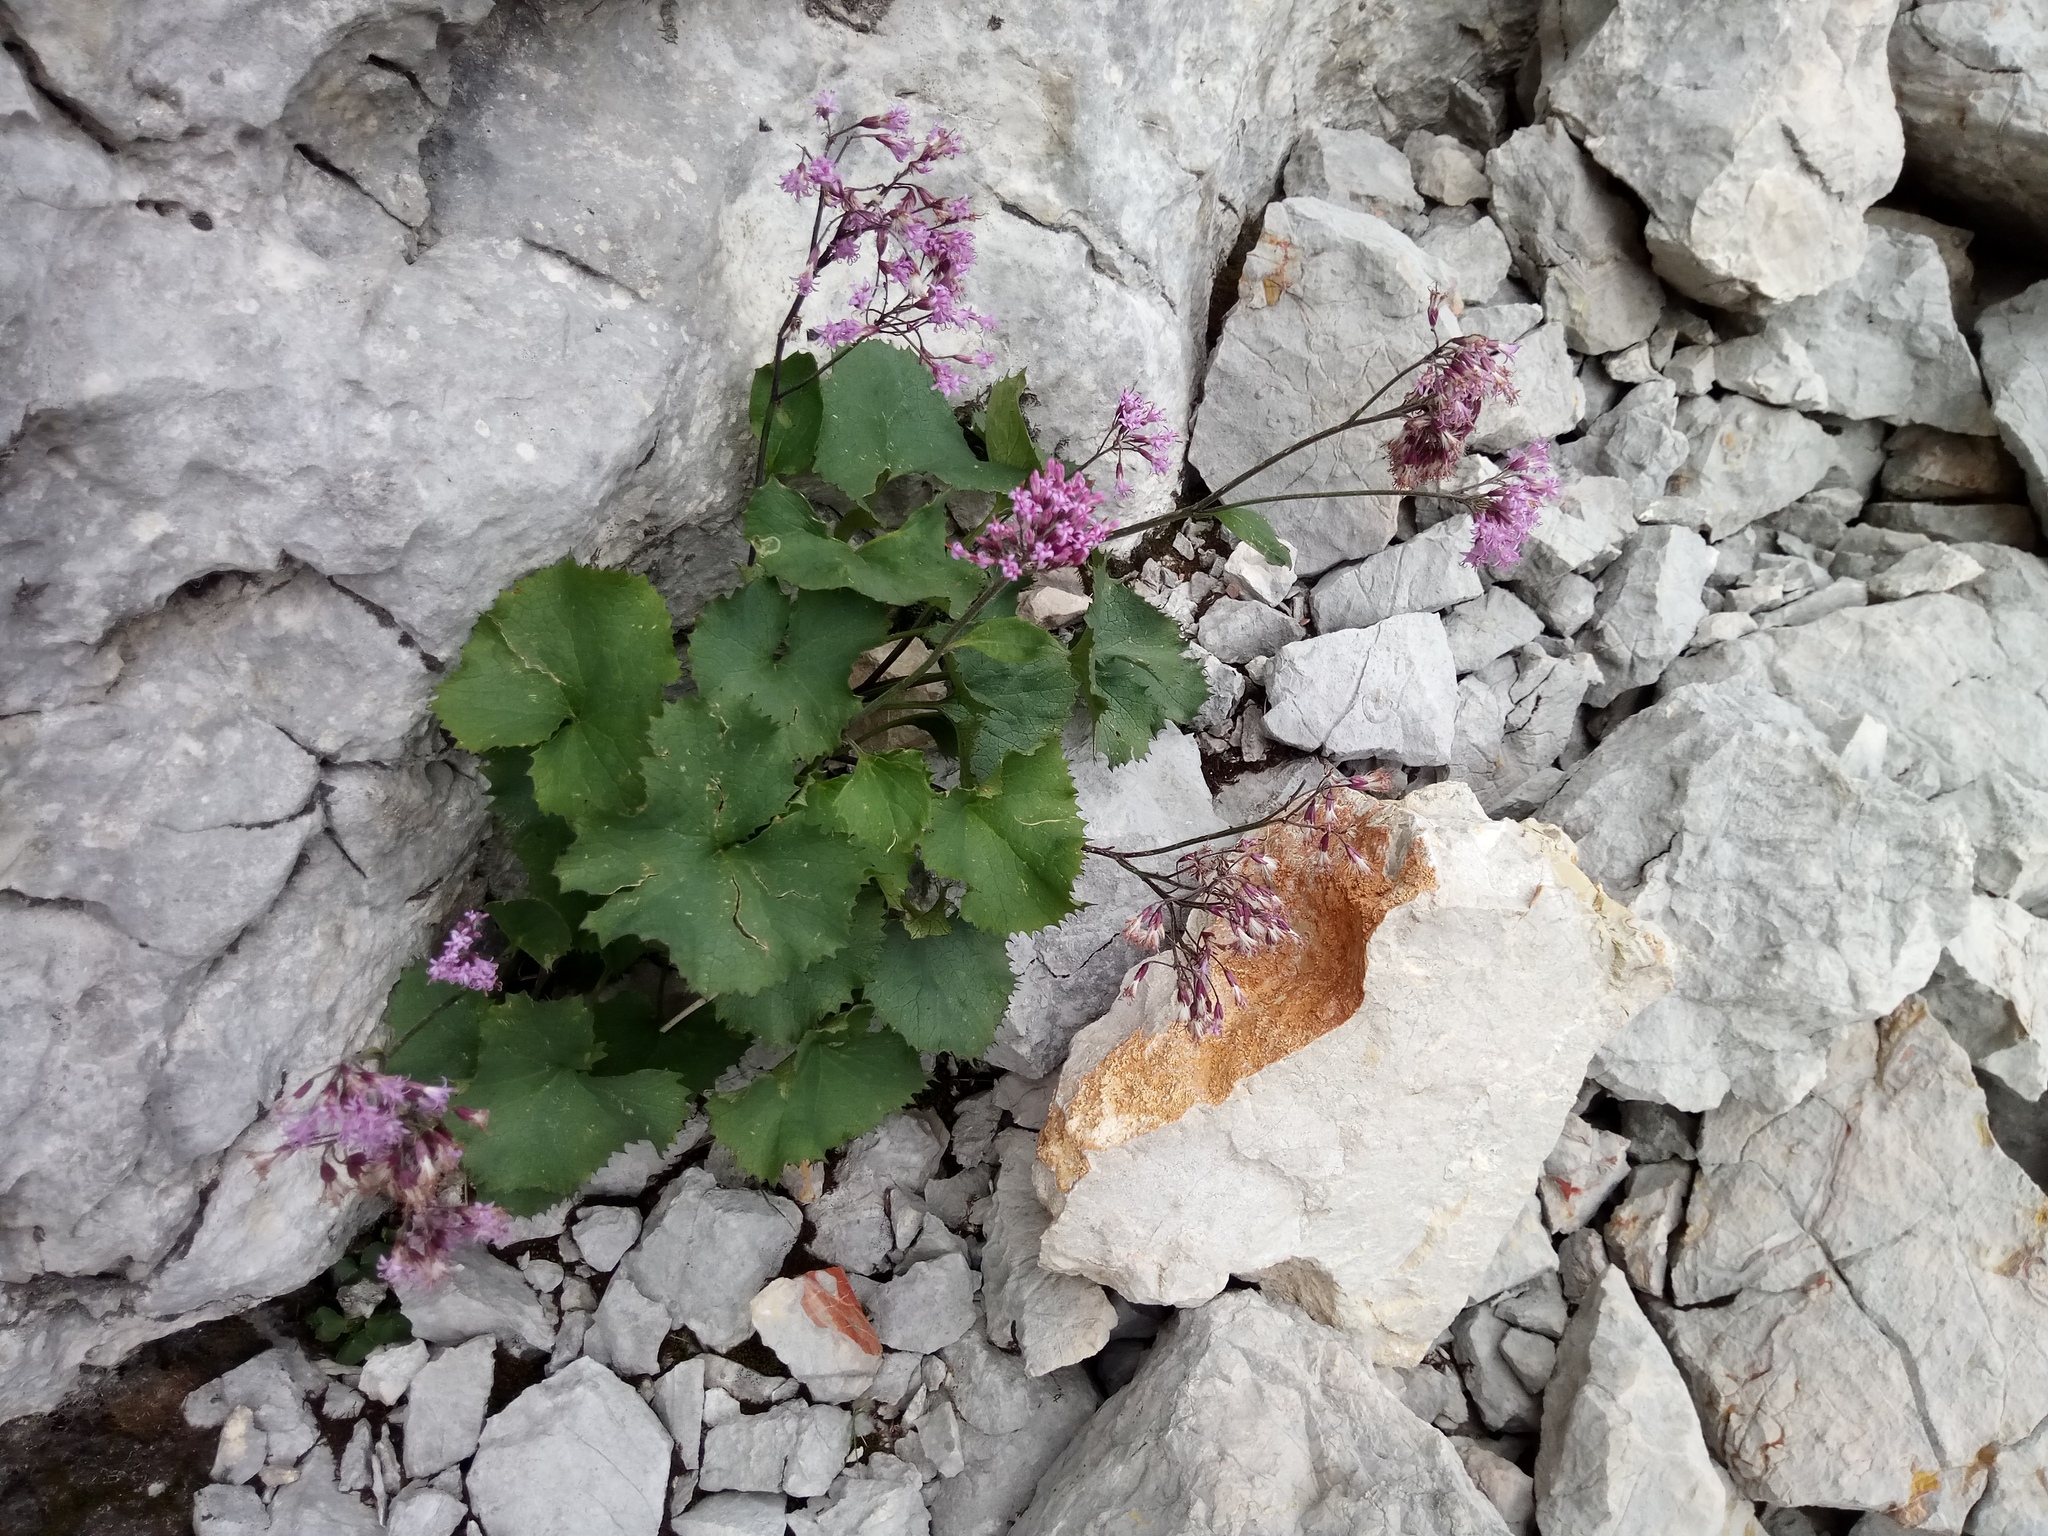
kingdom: Plantae
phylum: Tracheophyta
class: Magnoliopsida
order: Asterales
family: Asteraceae
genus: Adenostyles
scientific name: Adenostyles alpina
